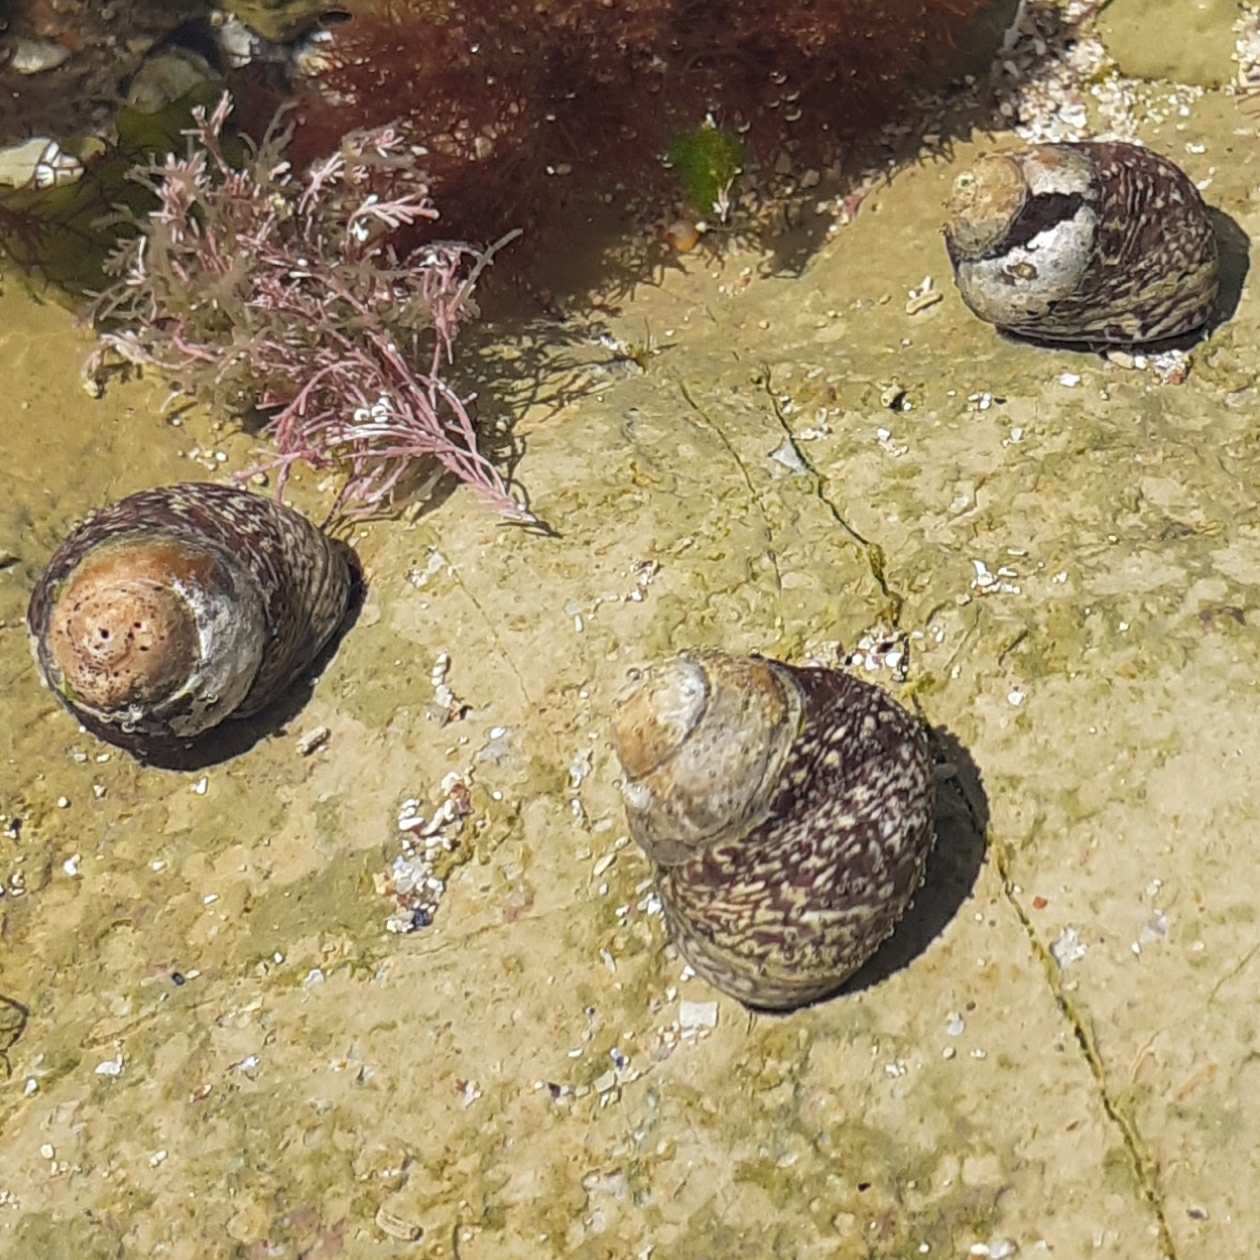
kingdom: Animalia
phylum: Mollusca
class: Gastropoda
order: Trochida
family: Trochidae
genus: Phorcus
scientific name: Phorcus lineatus
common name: Toothed top shell
